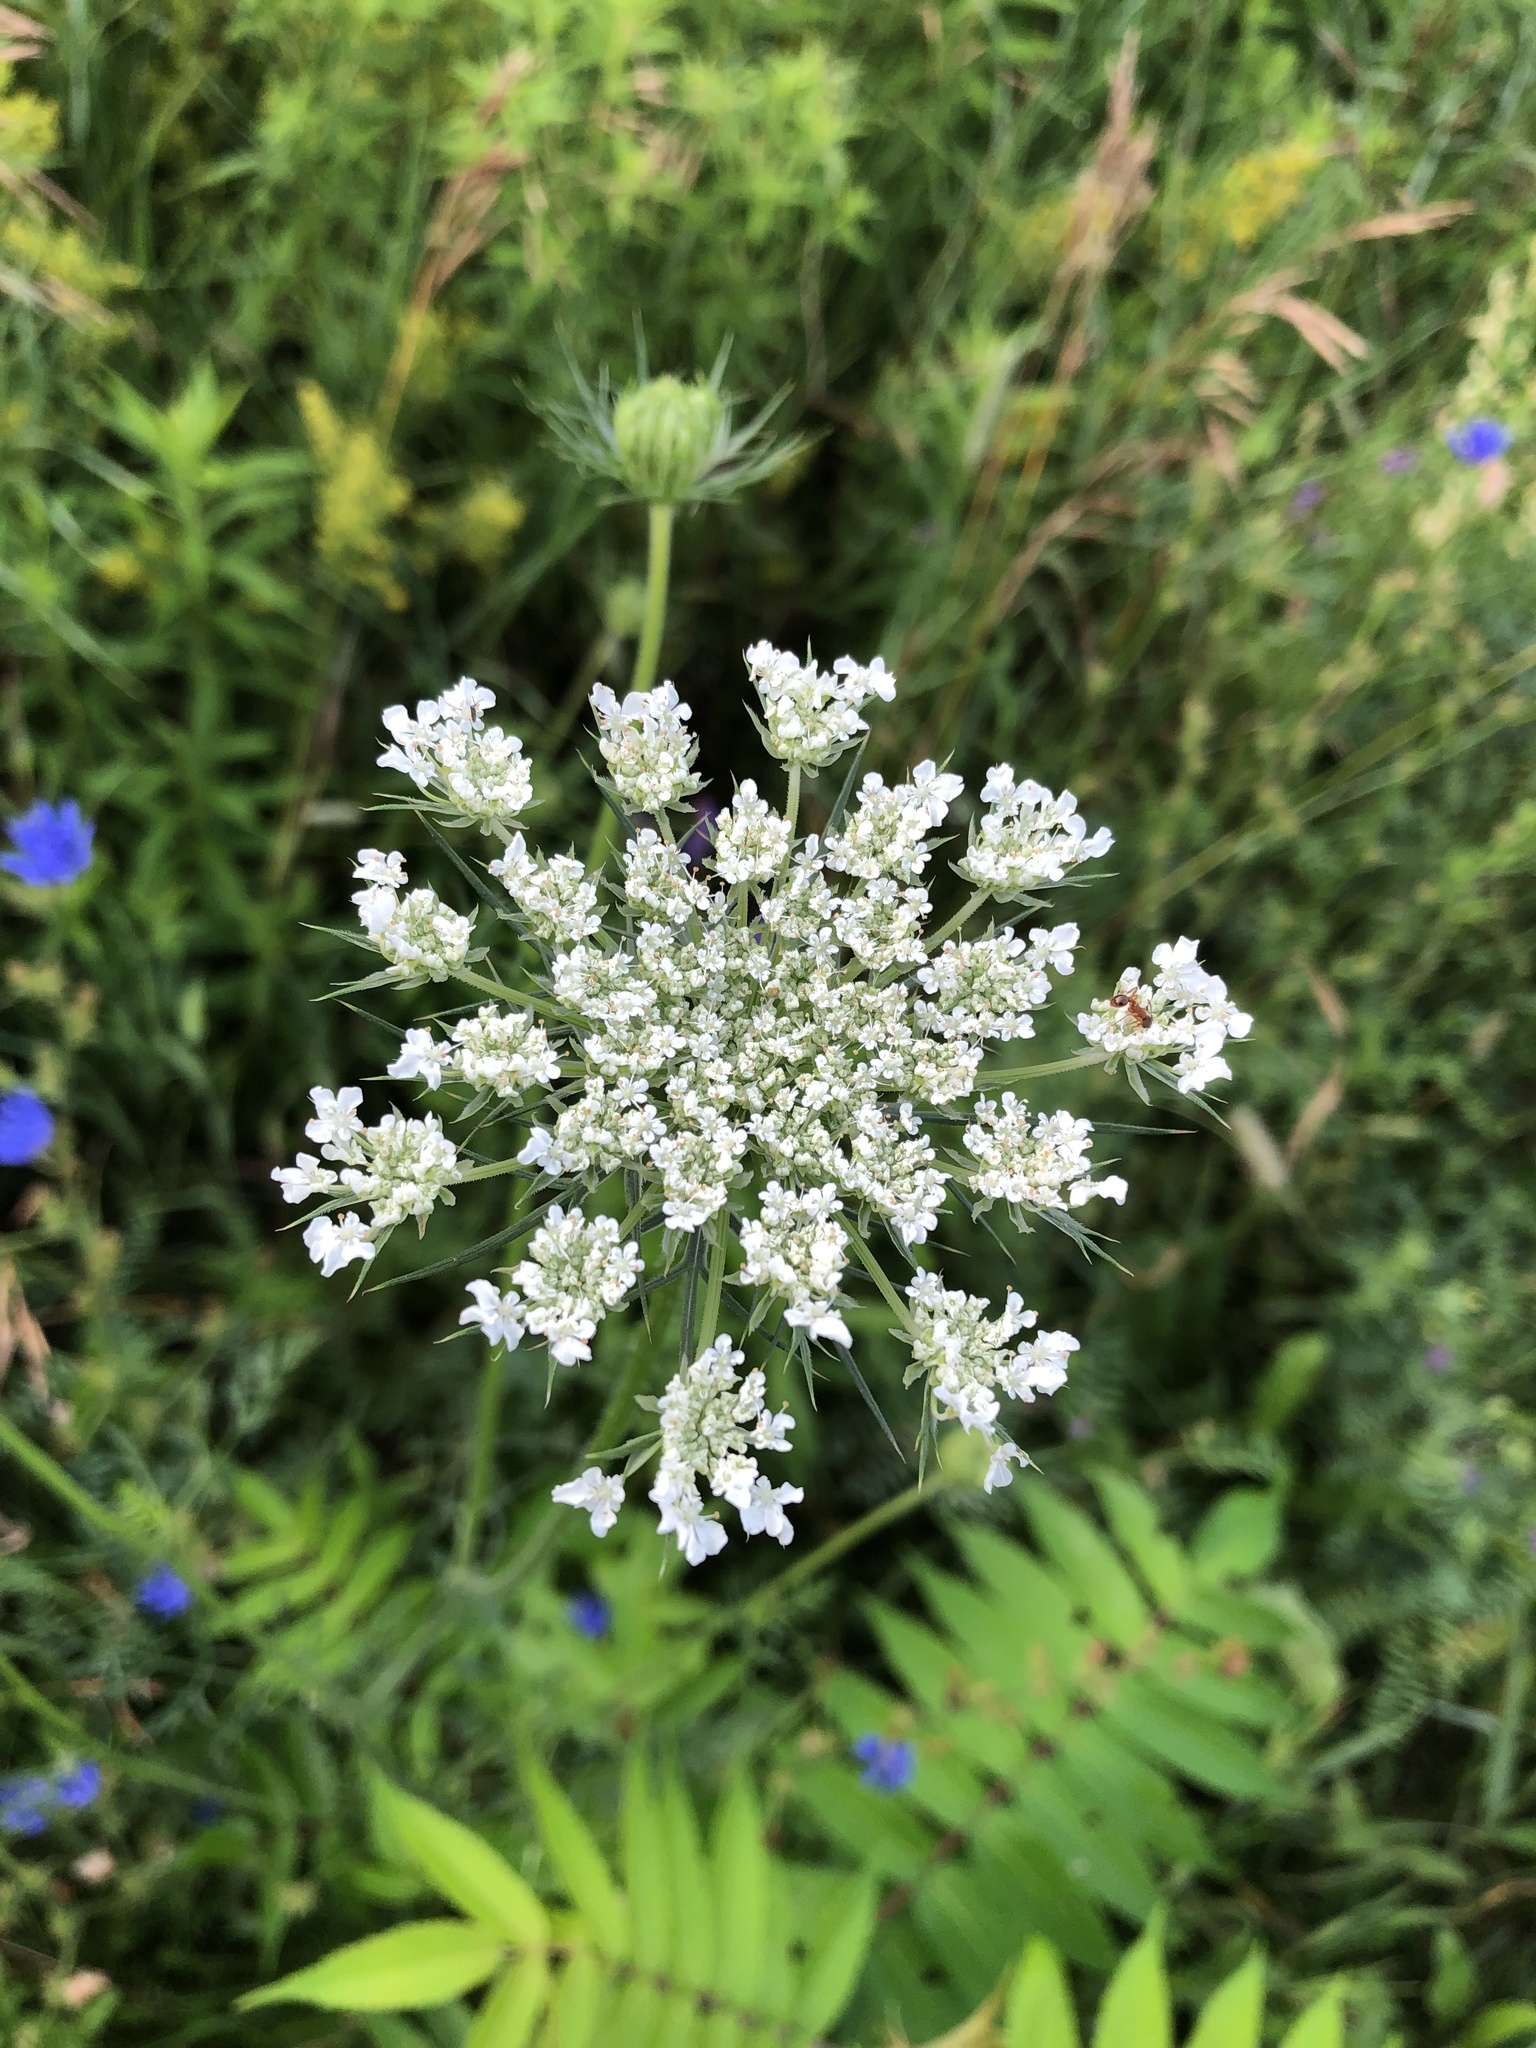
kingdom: Plantae
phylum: Tracheophyta
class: Magnoliopsida
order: Apiales
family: Apiaceae
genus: Daucus
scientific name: Daucus carota
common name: Wild carrot
